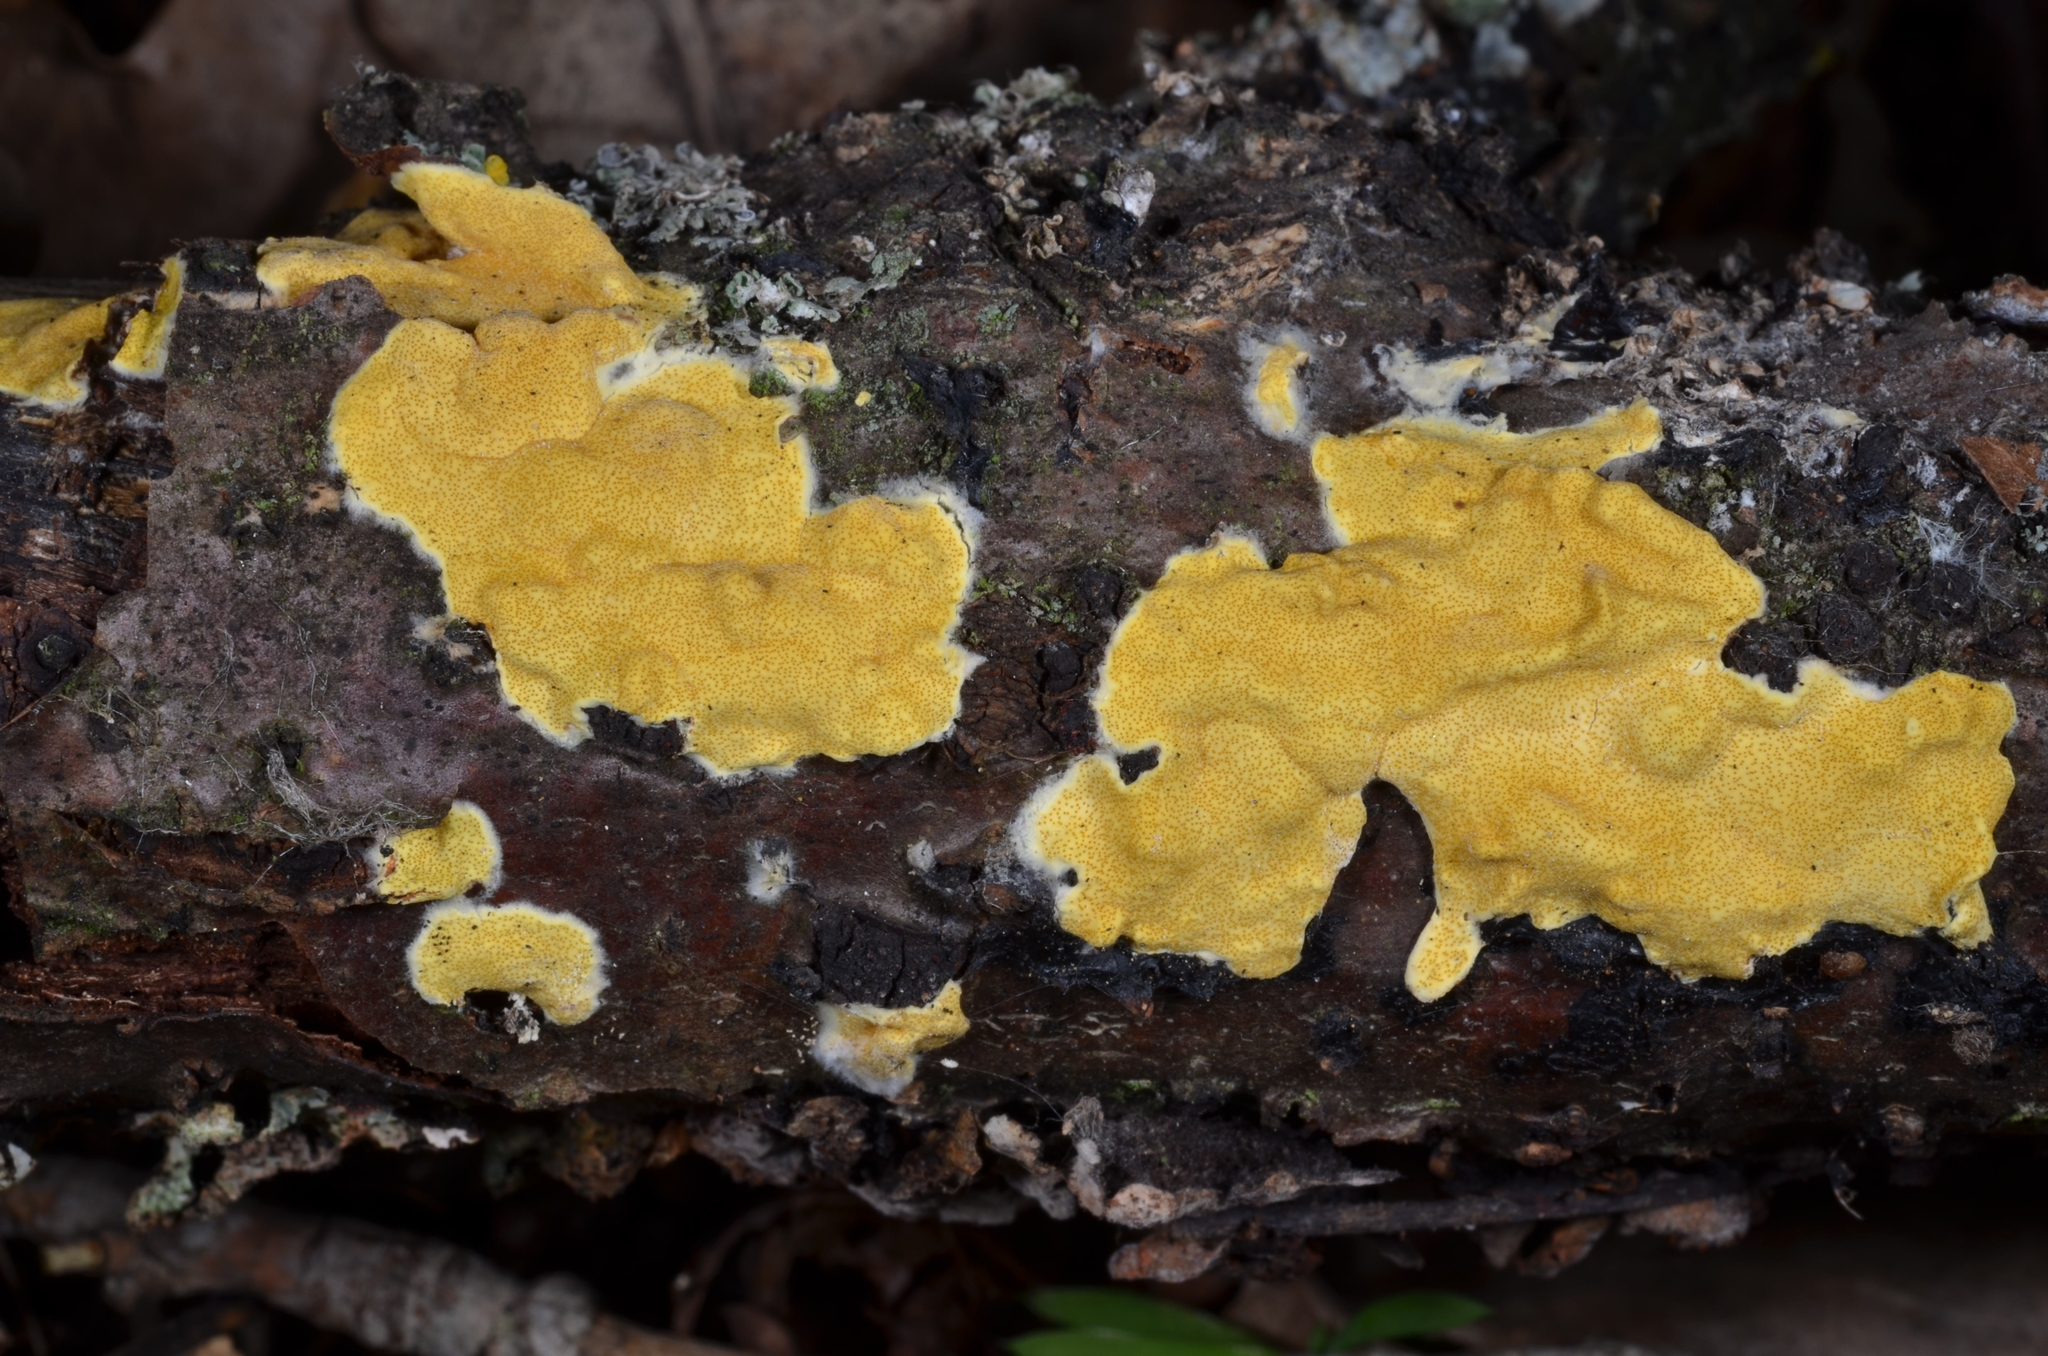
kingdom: Fungi
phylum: Ascomycota
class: Sordariomycetes
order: Hypocreales
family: Hypocreaceae
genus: Trichoderma
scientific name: Trichoderma sulphureum
